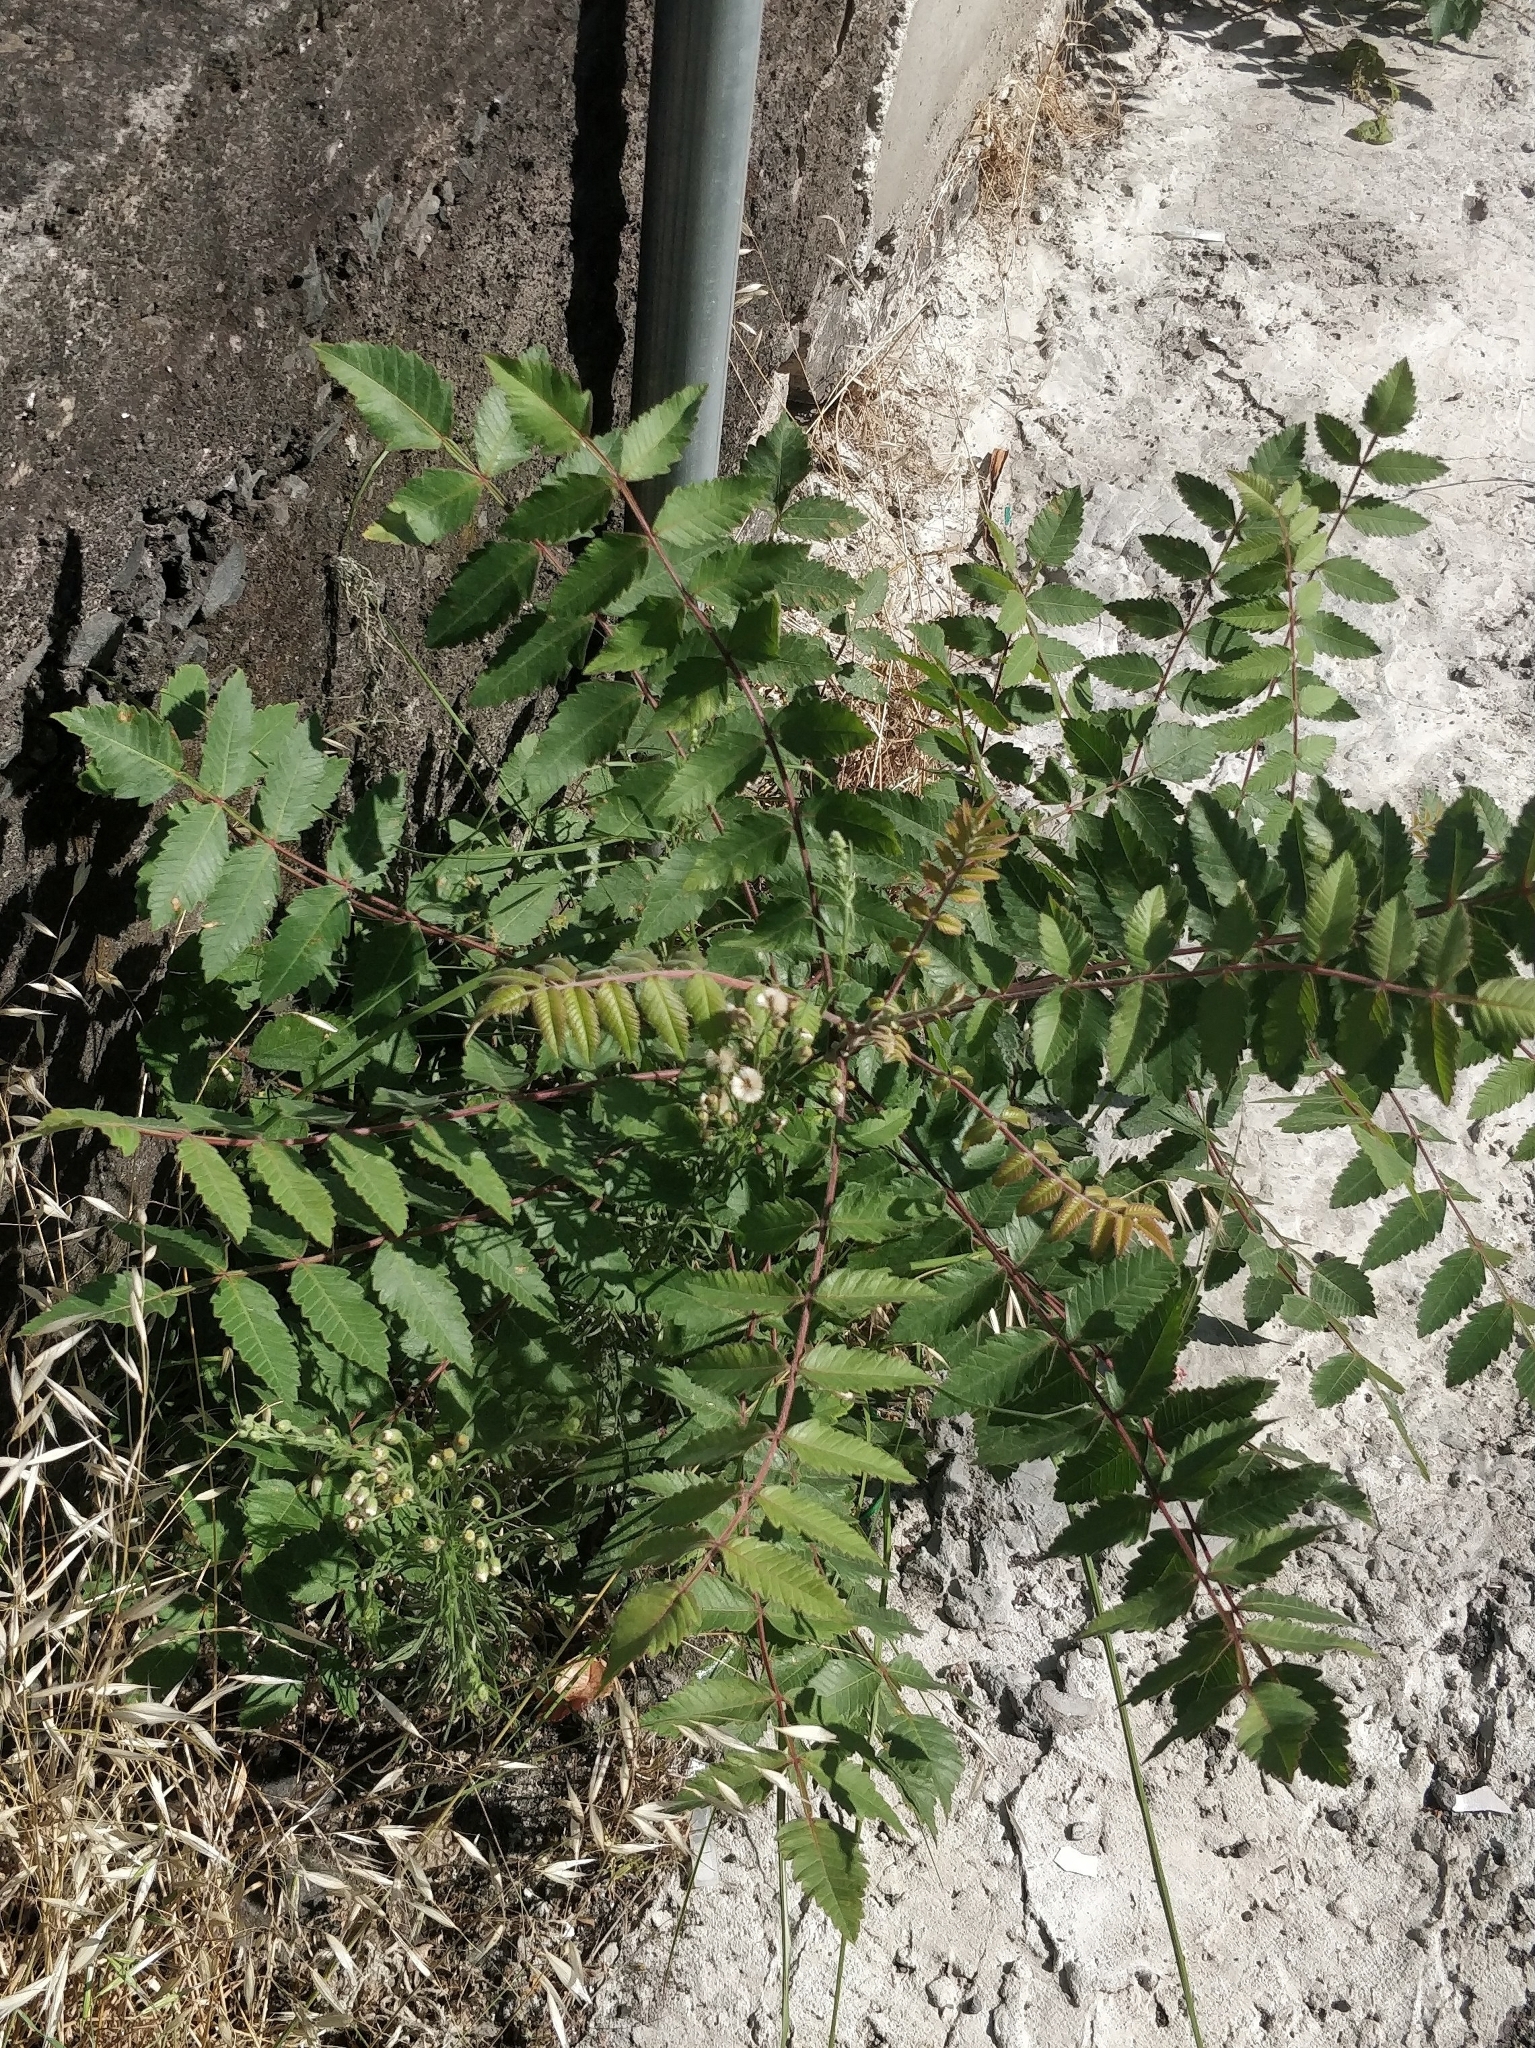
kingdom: Plantae
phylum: Tracheophyta
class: Magnoliopsida
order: Sapindales
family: Anacardiaceae
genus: Rhus
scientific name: Rhus coriaria
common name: Tanner's sumach
